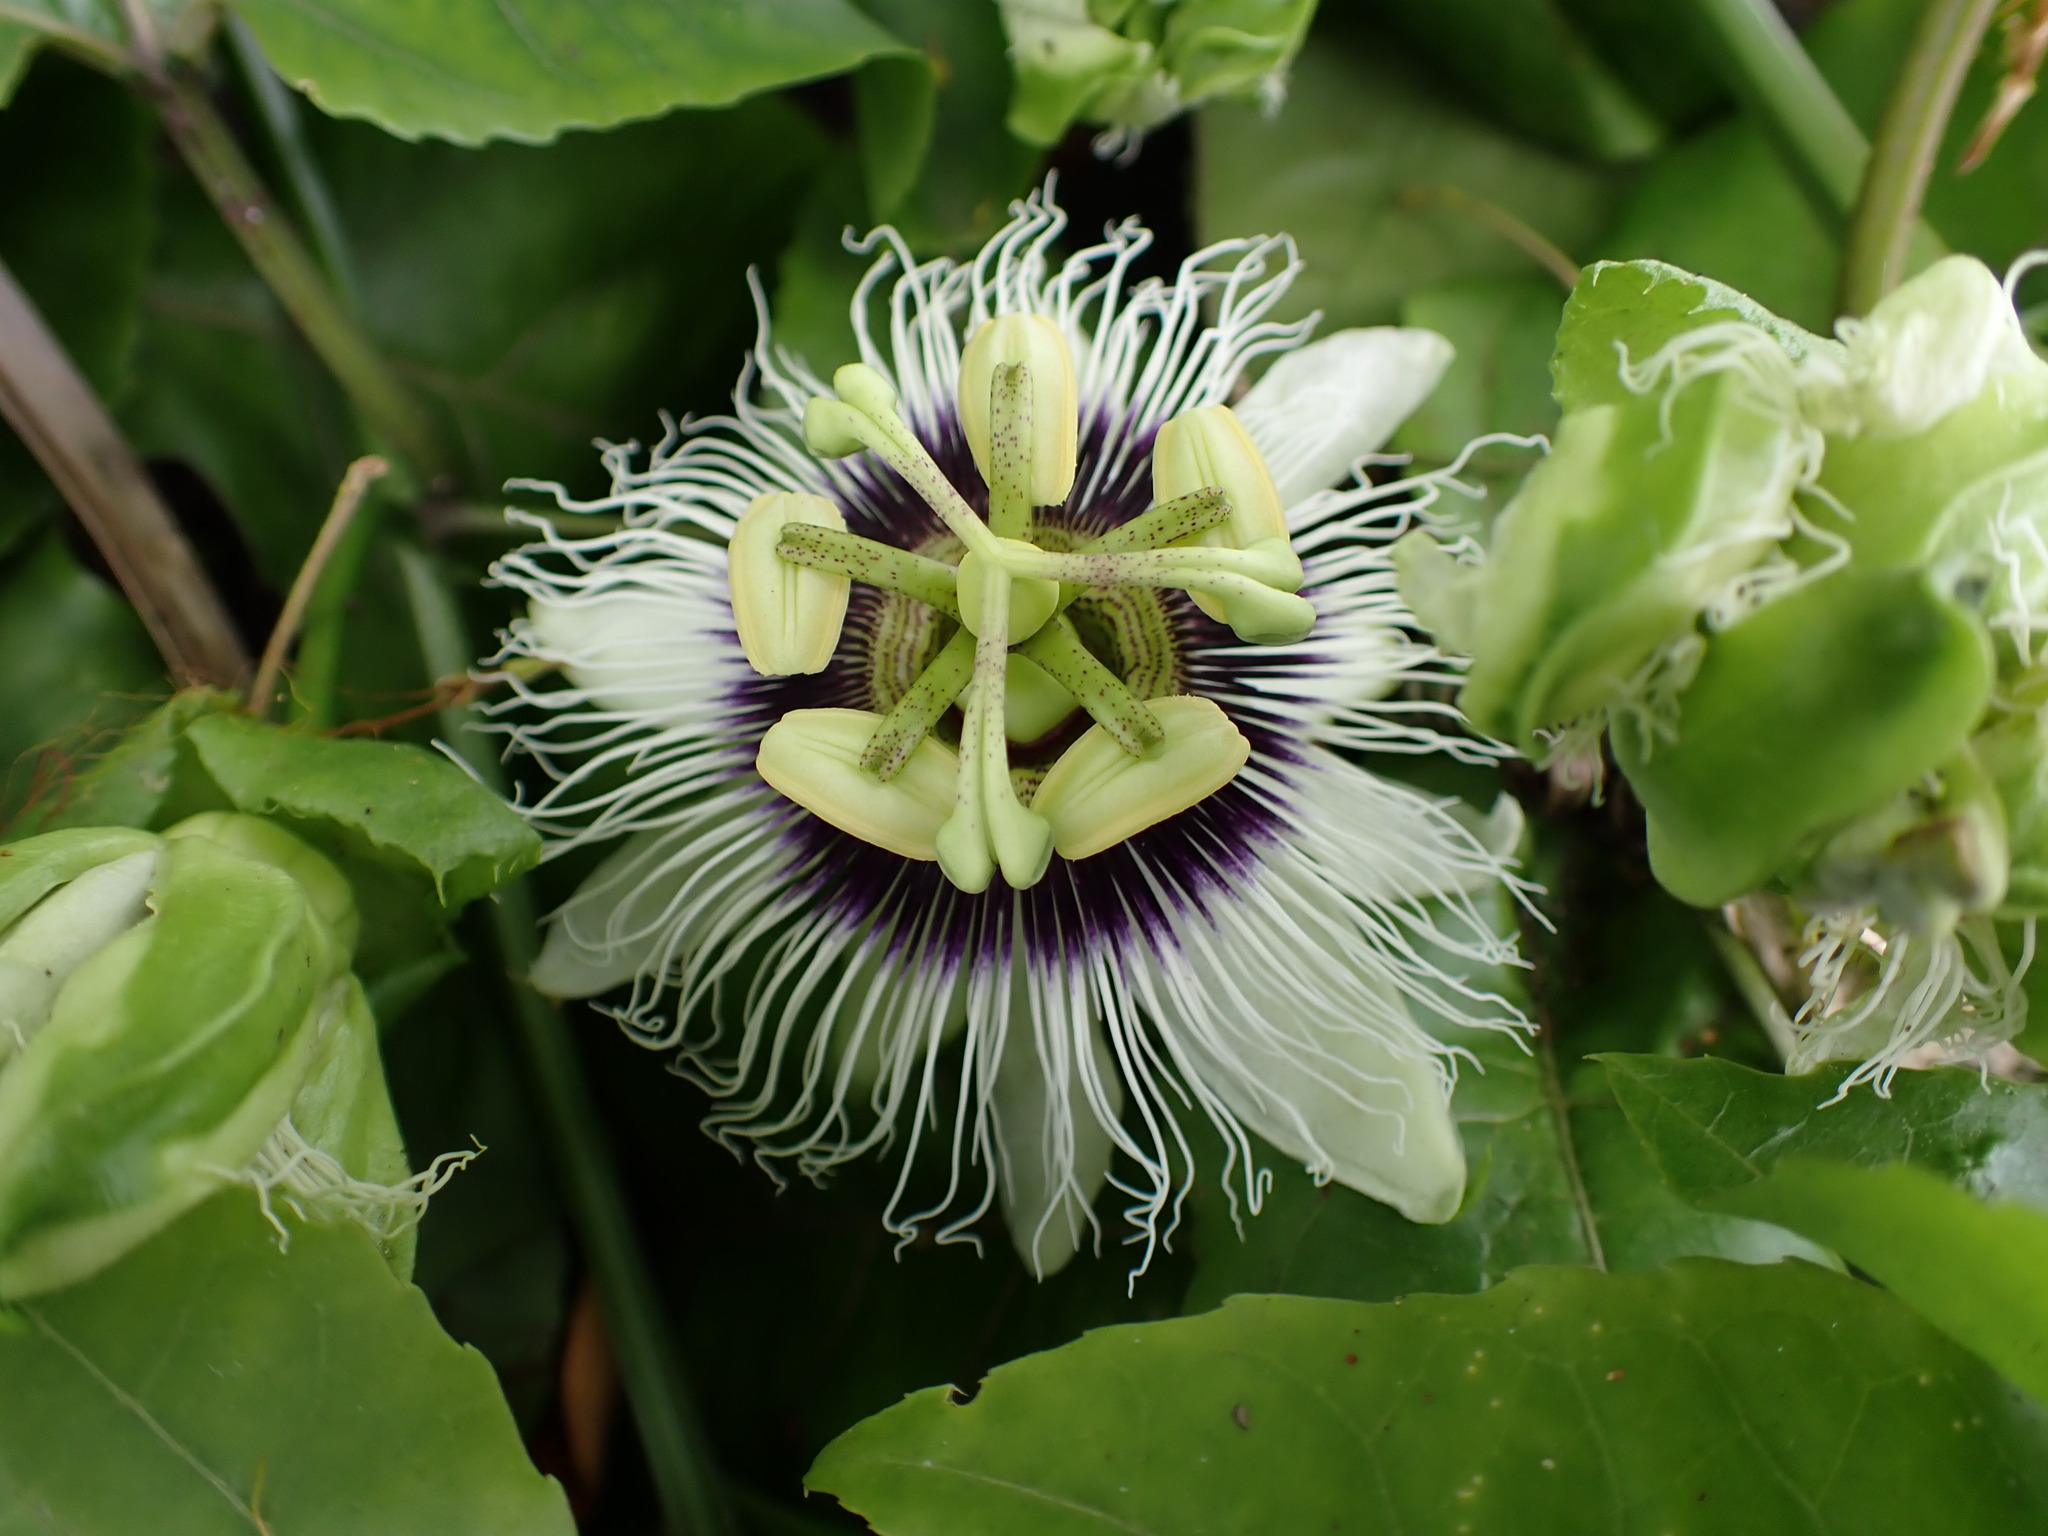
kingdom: Plantae
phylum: Tracheophyta
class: Magnoliopsida
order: Malpighiales
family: Passifloraceae
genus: Passiflora
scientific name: Passiflora edulis
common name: Purple granadilla
